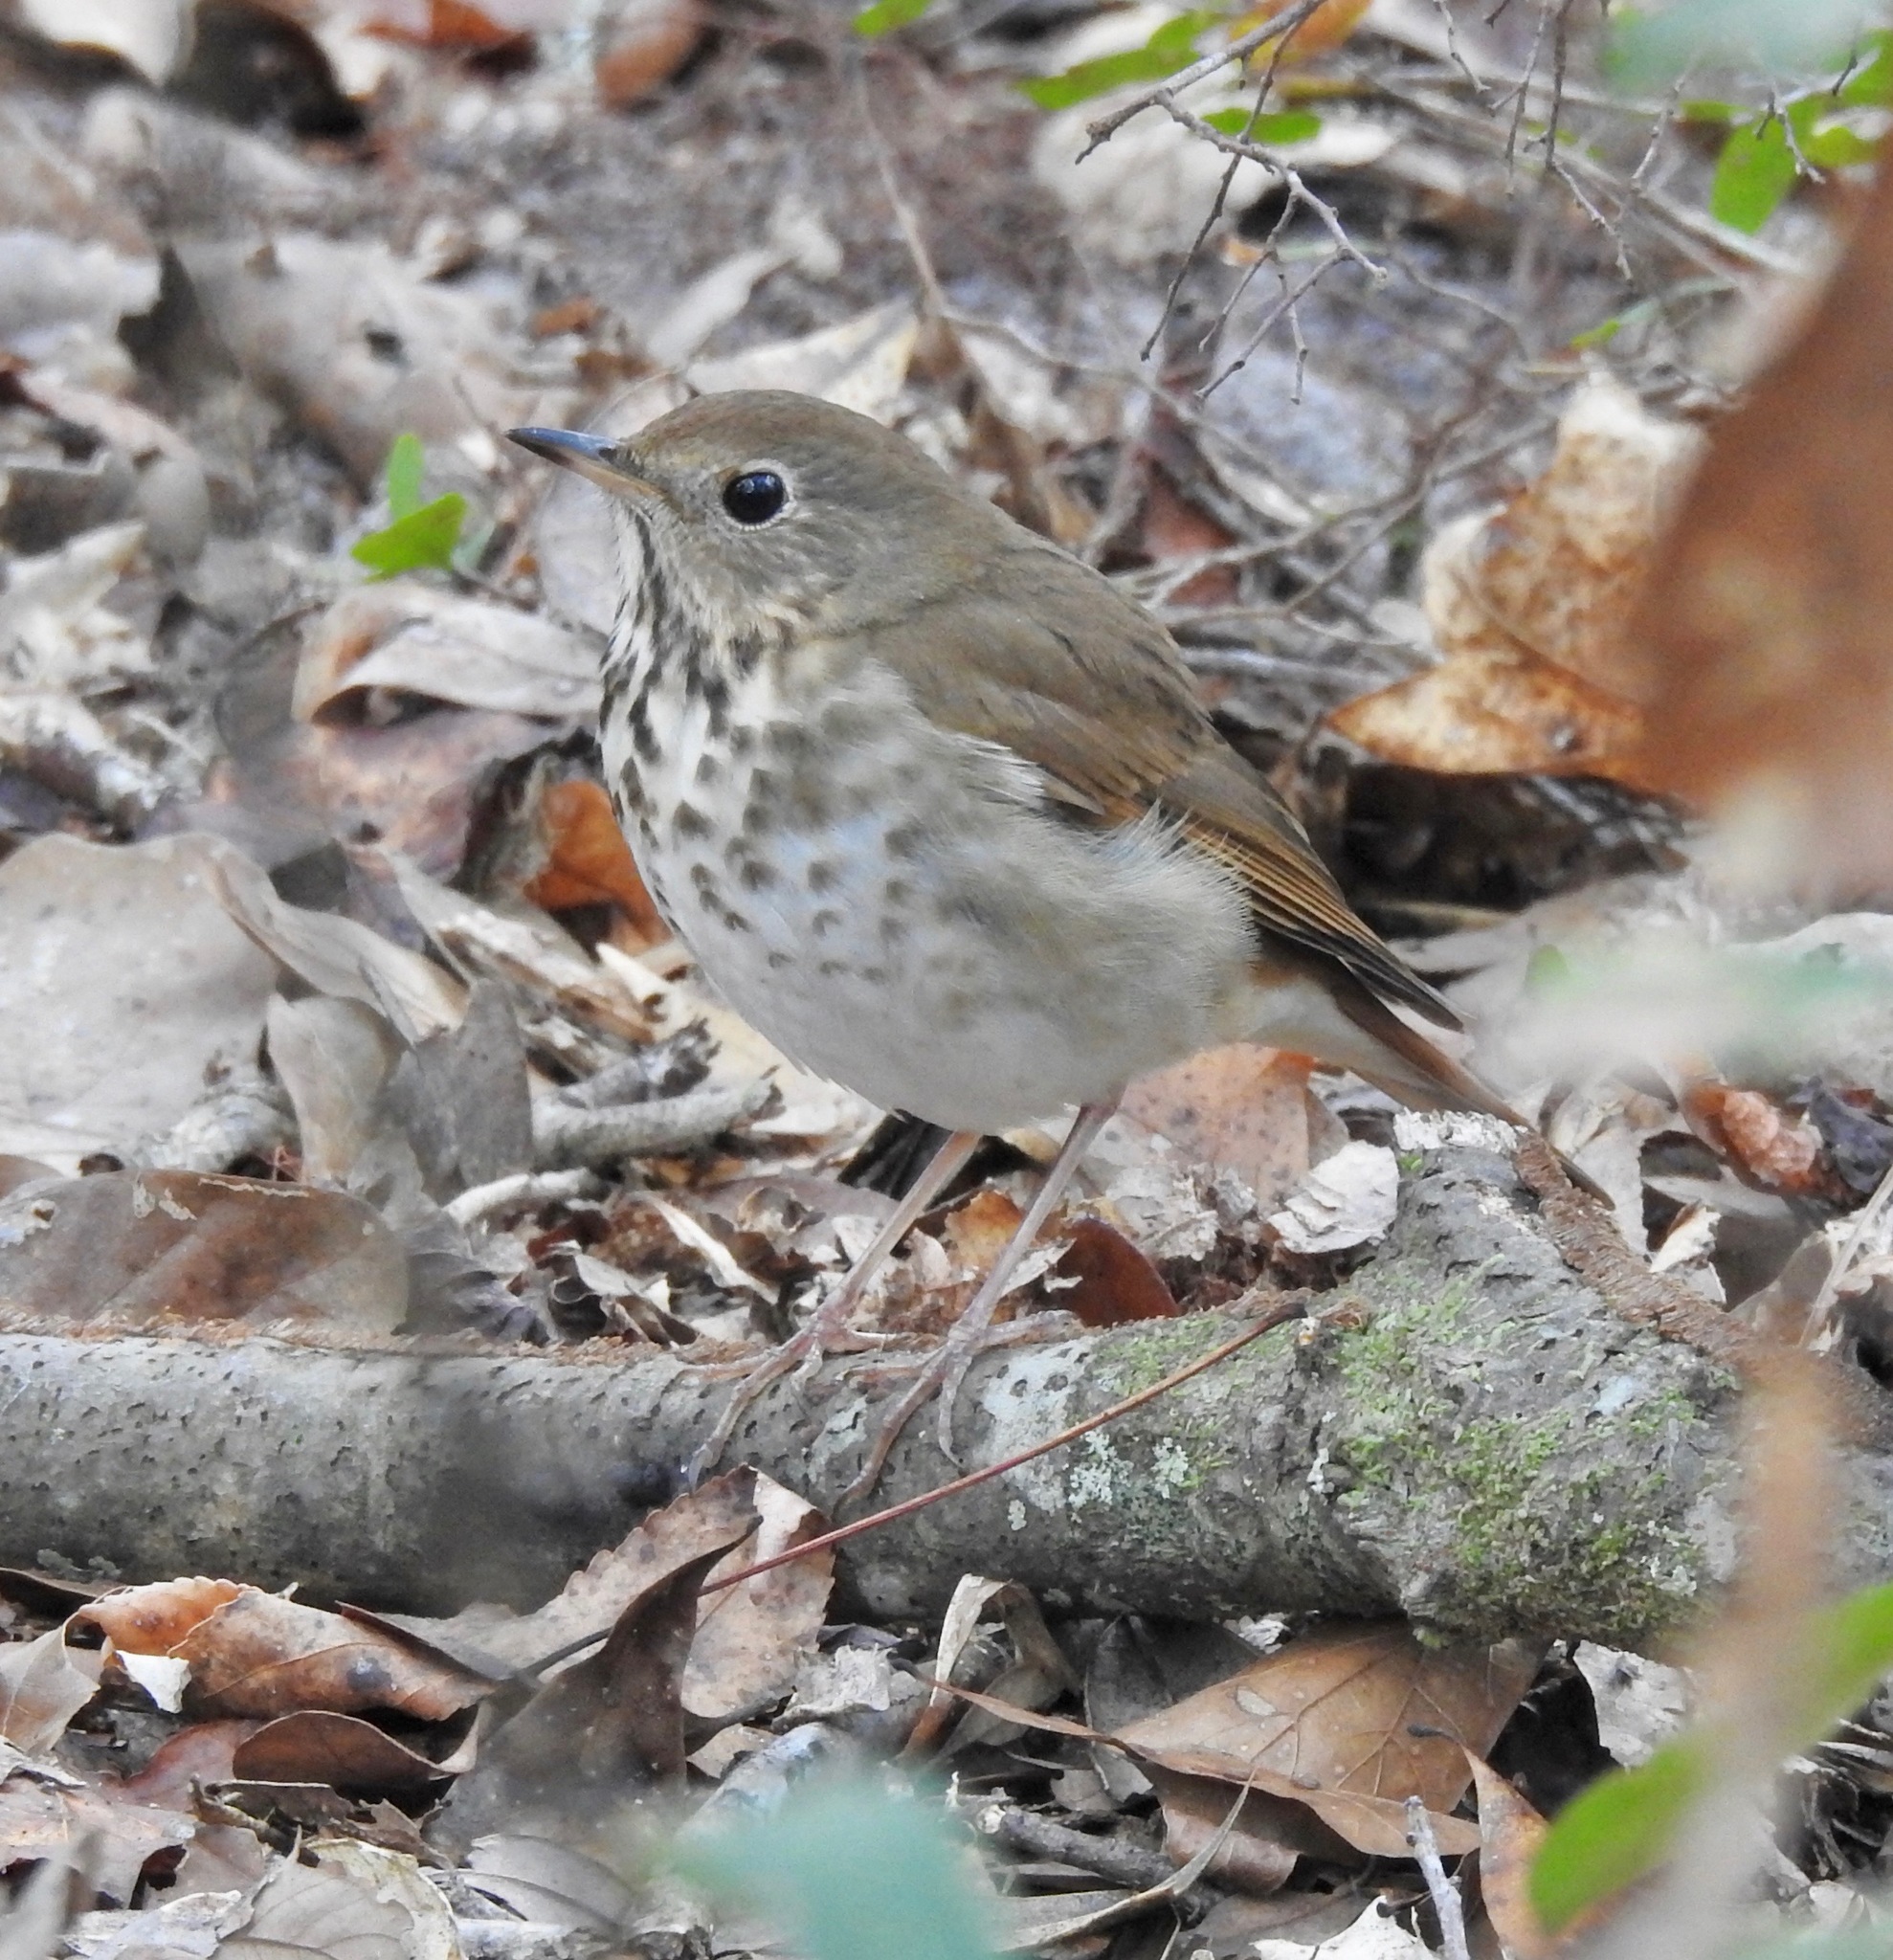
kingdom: Animalia
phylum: Chordata
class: Aves
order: Passeriformes
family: Turdidae
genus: Catharus
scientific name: Catharus guttatus
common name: Hermit thrush
